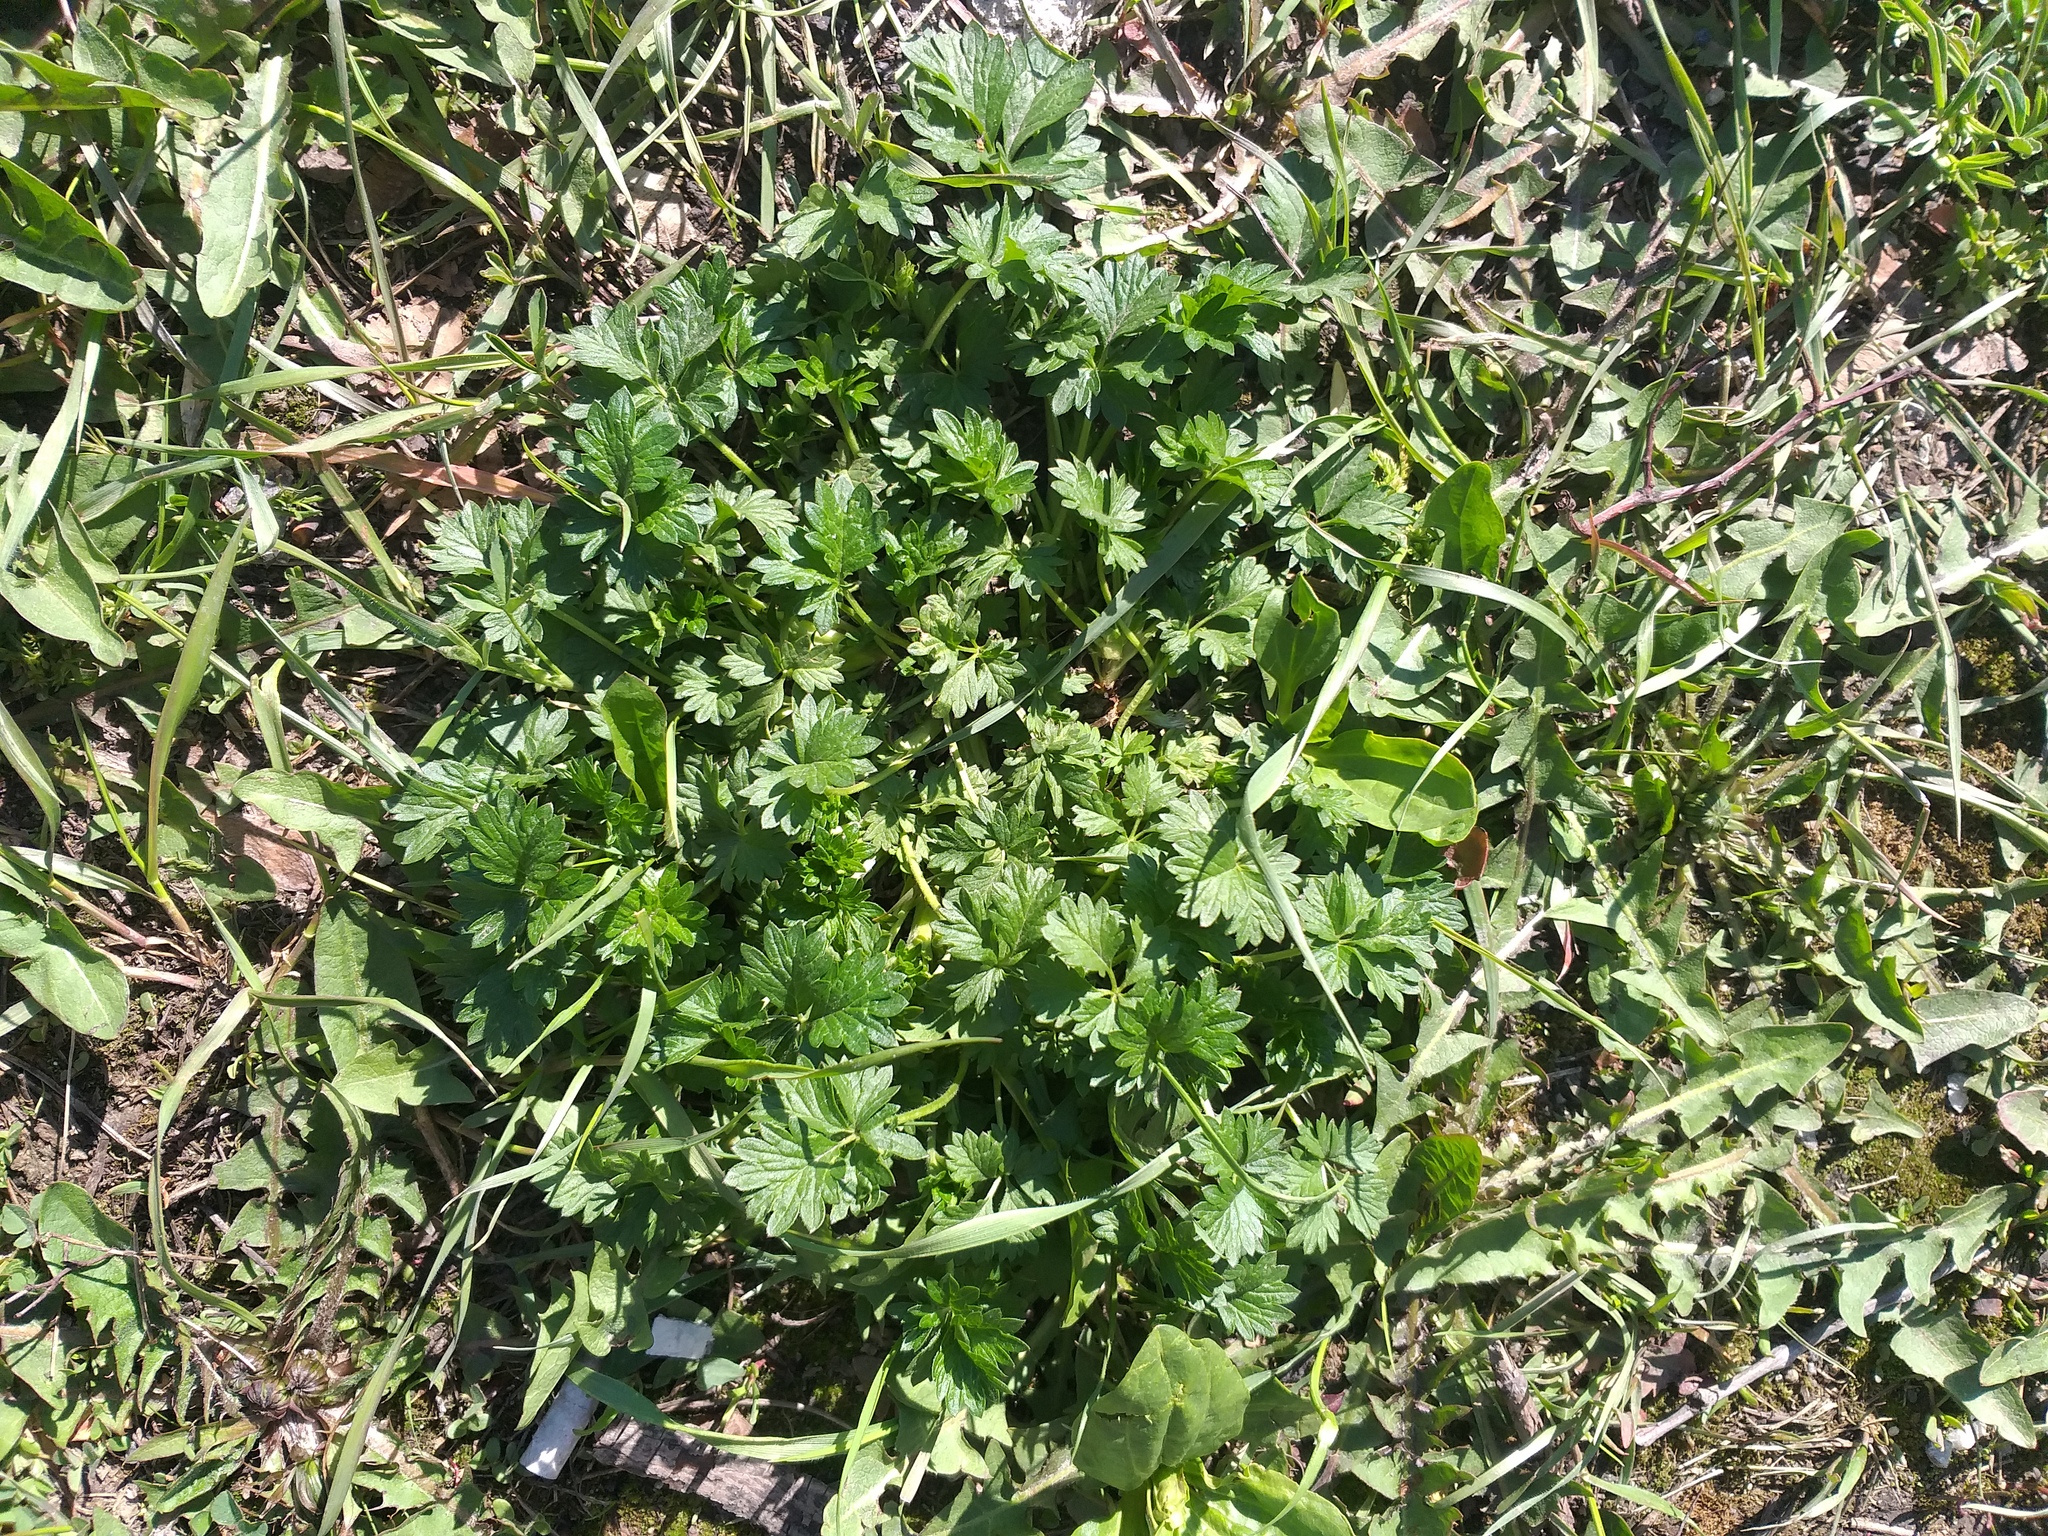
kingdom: Plantae
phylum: Tracheophyta
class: Magnoliopsida
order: Rosales
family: Rosaceae
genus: Potentilla
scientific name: Potentilla intermedia
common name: Downy cinquefoil
